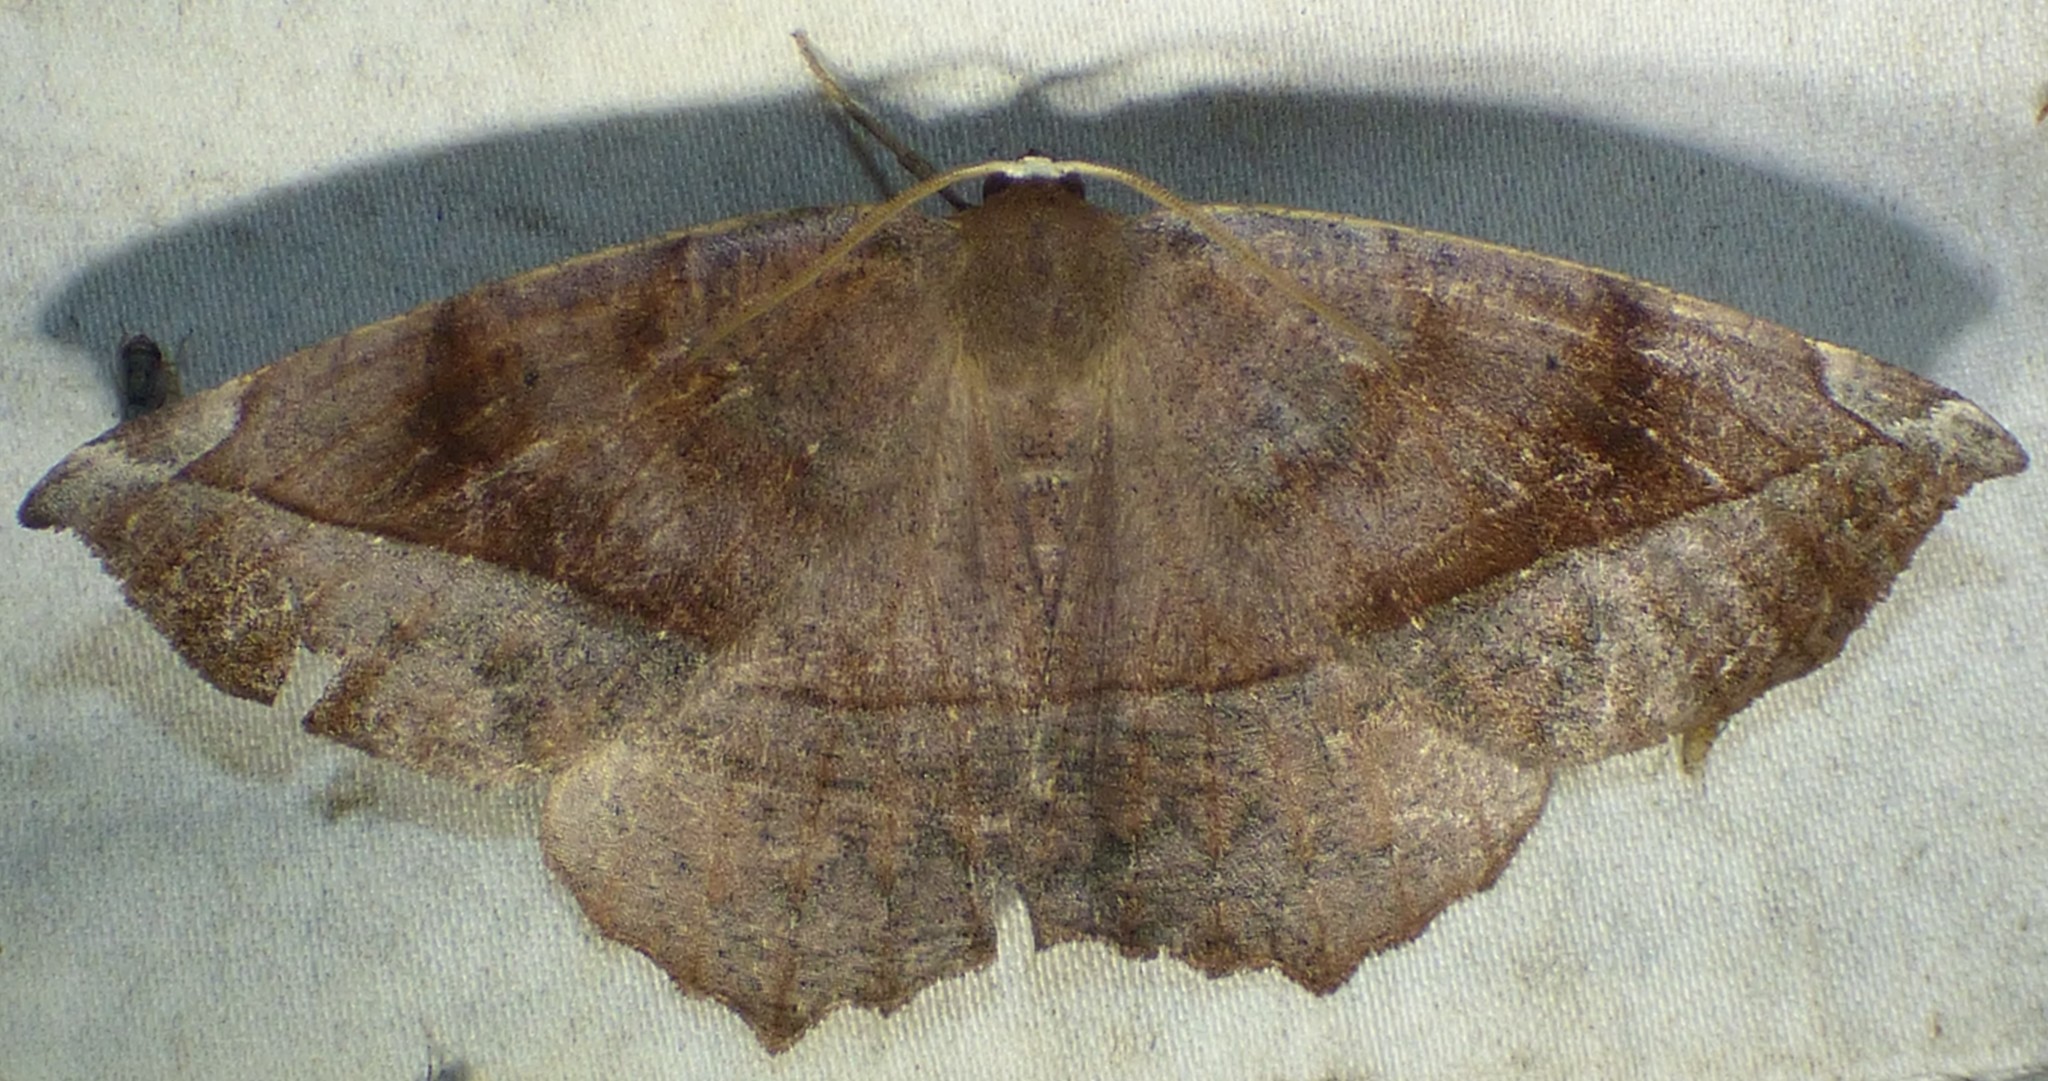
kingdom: Animalia
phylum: Arthropoda
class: Insecta
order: Lepidoptera
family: Geometridae
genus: Eutrapela
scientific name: Eutrapela clemataria
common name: Curved-toothed geometer
